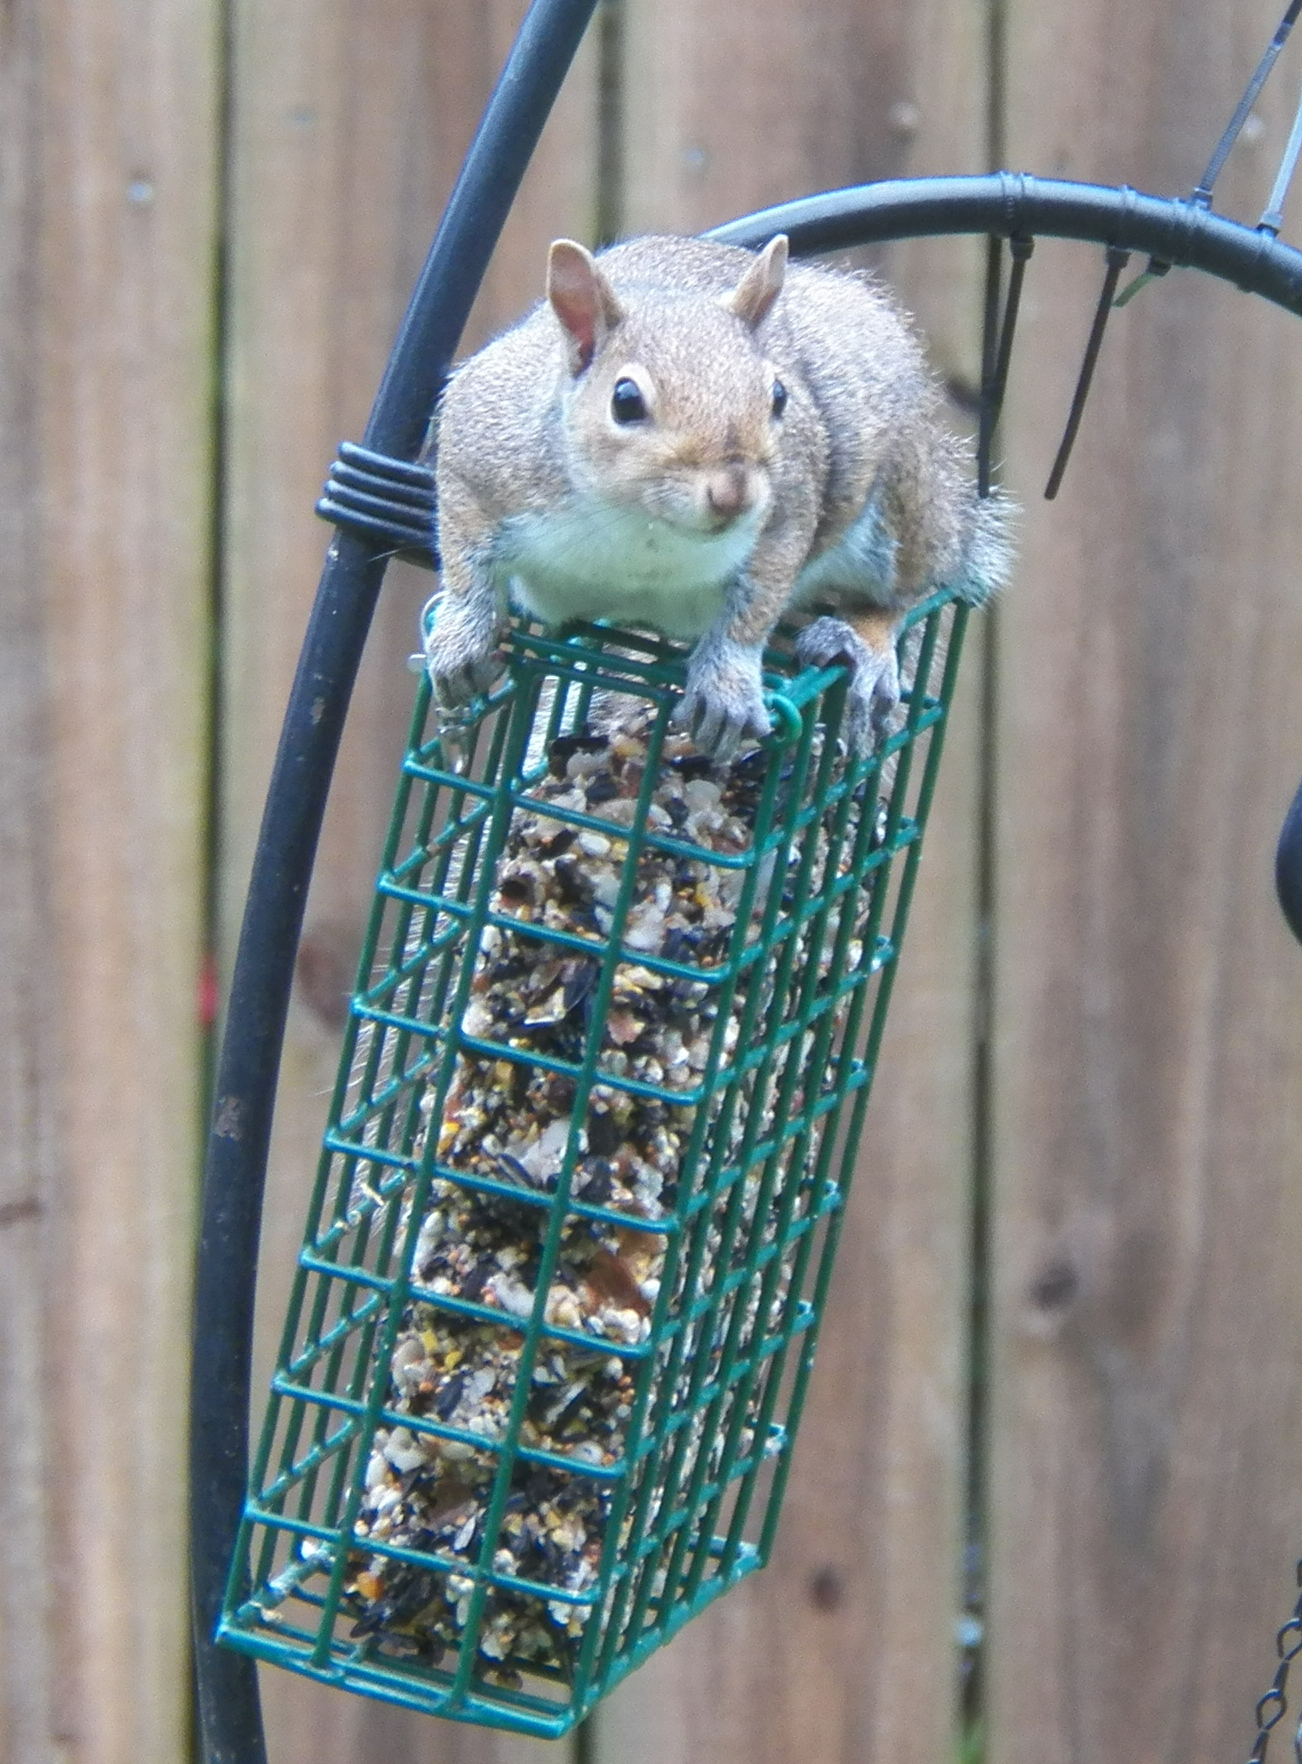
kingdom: Animalia
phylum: Chordata
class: Mammalia
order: Rodentia
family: Sciuridae
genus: Sciurus
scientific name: Sciurus carolinensis
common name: Eastern gray squirrel
